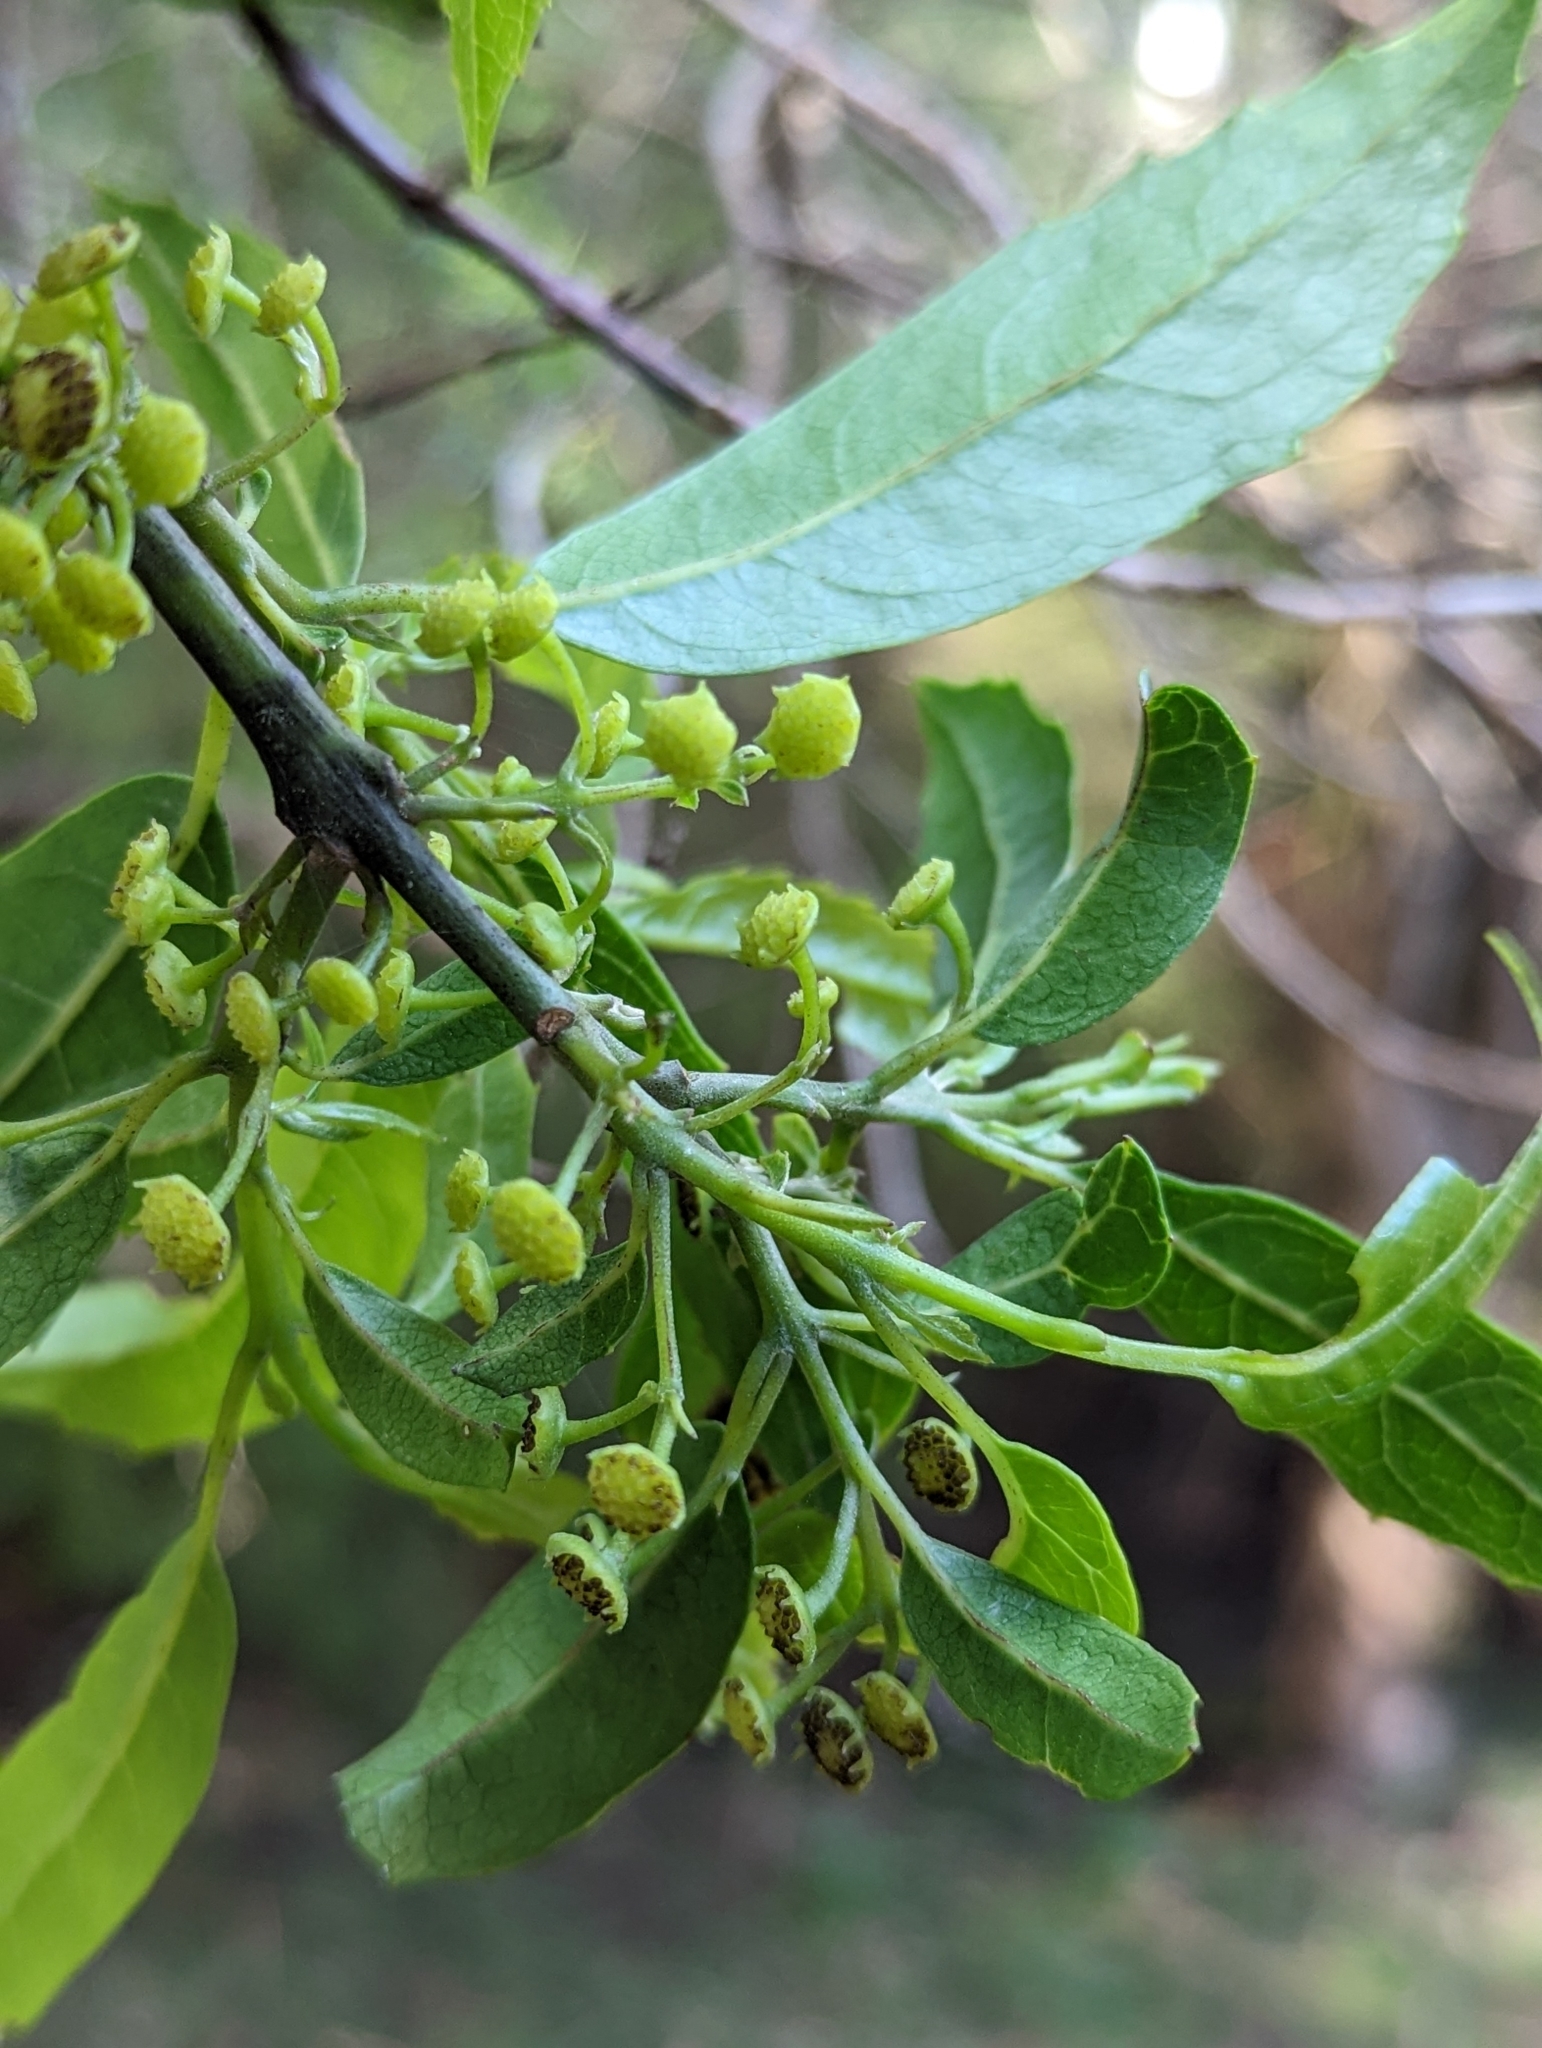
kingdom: Plantae
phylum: Tracheophyta
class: Magnoliopsida
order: Laurales
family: Monimiaceae
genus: Hedycarya
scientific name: Hedycarya angustifolia
